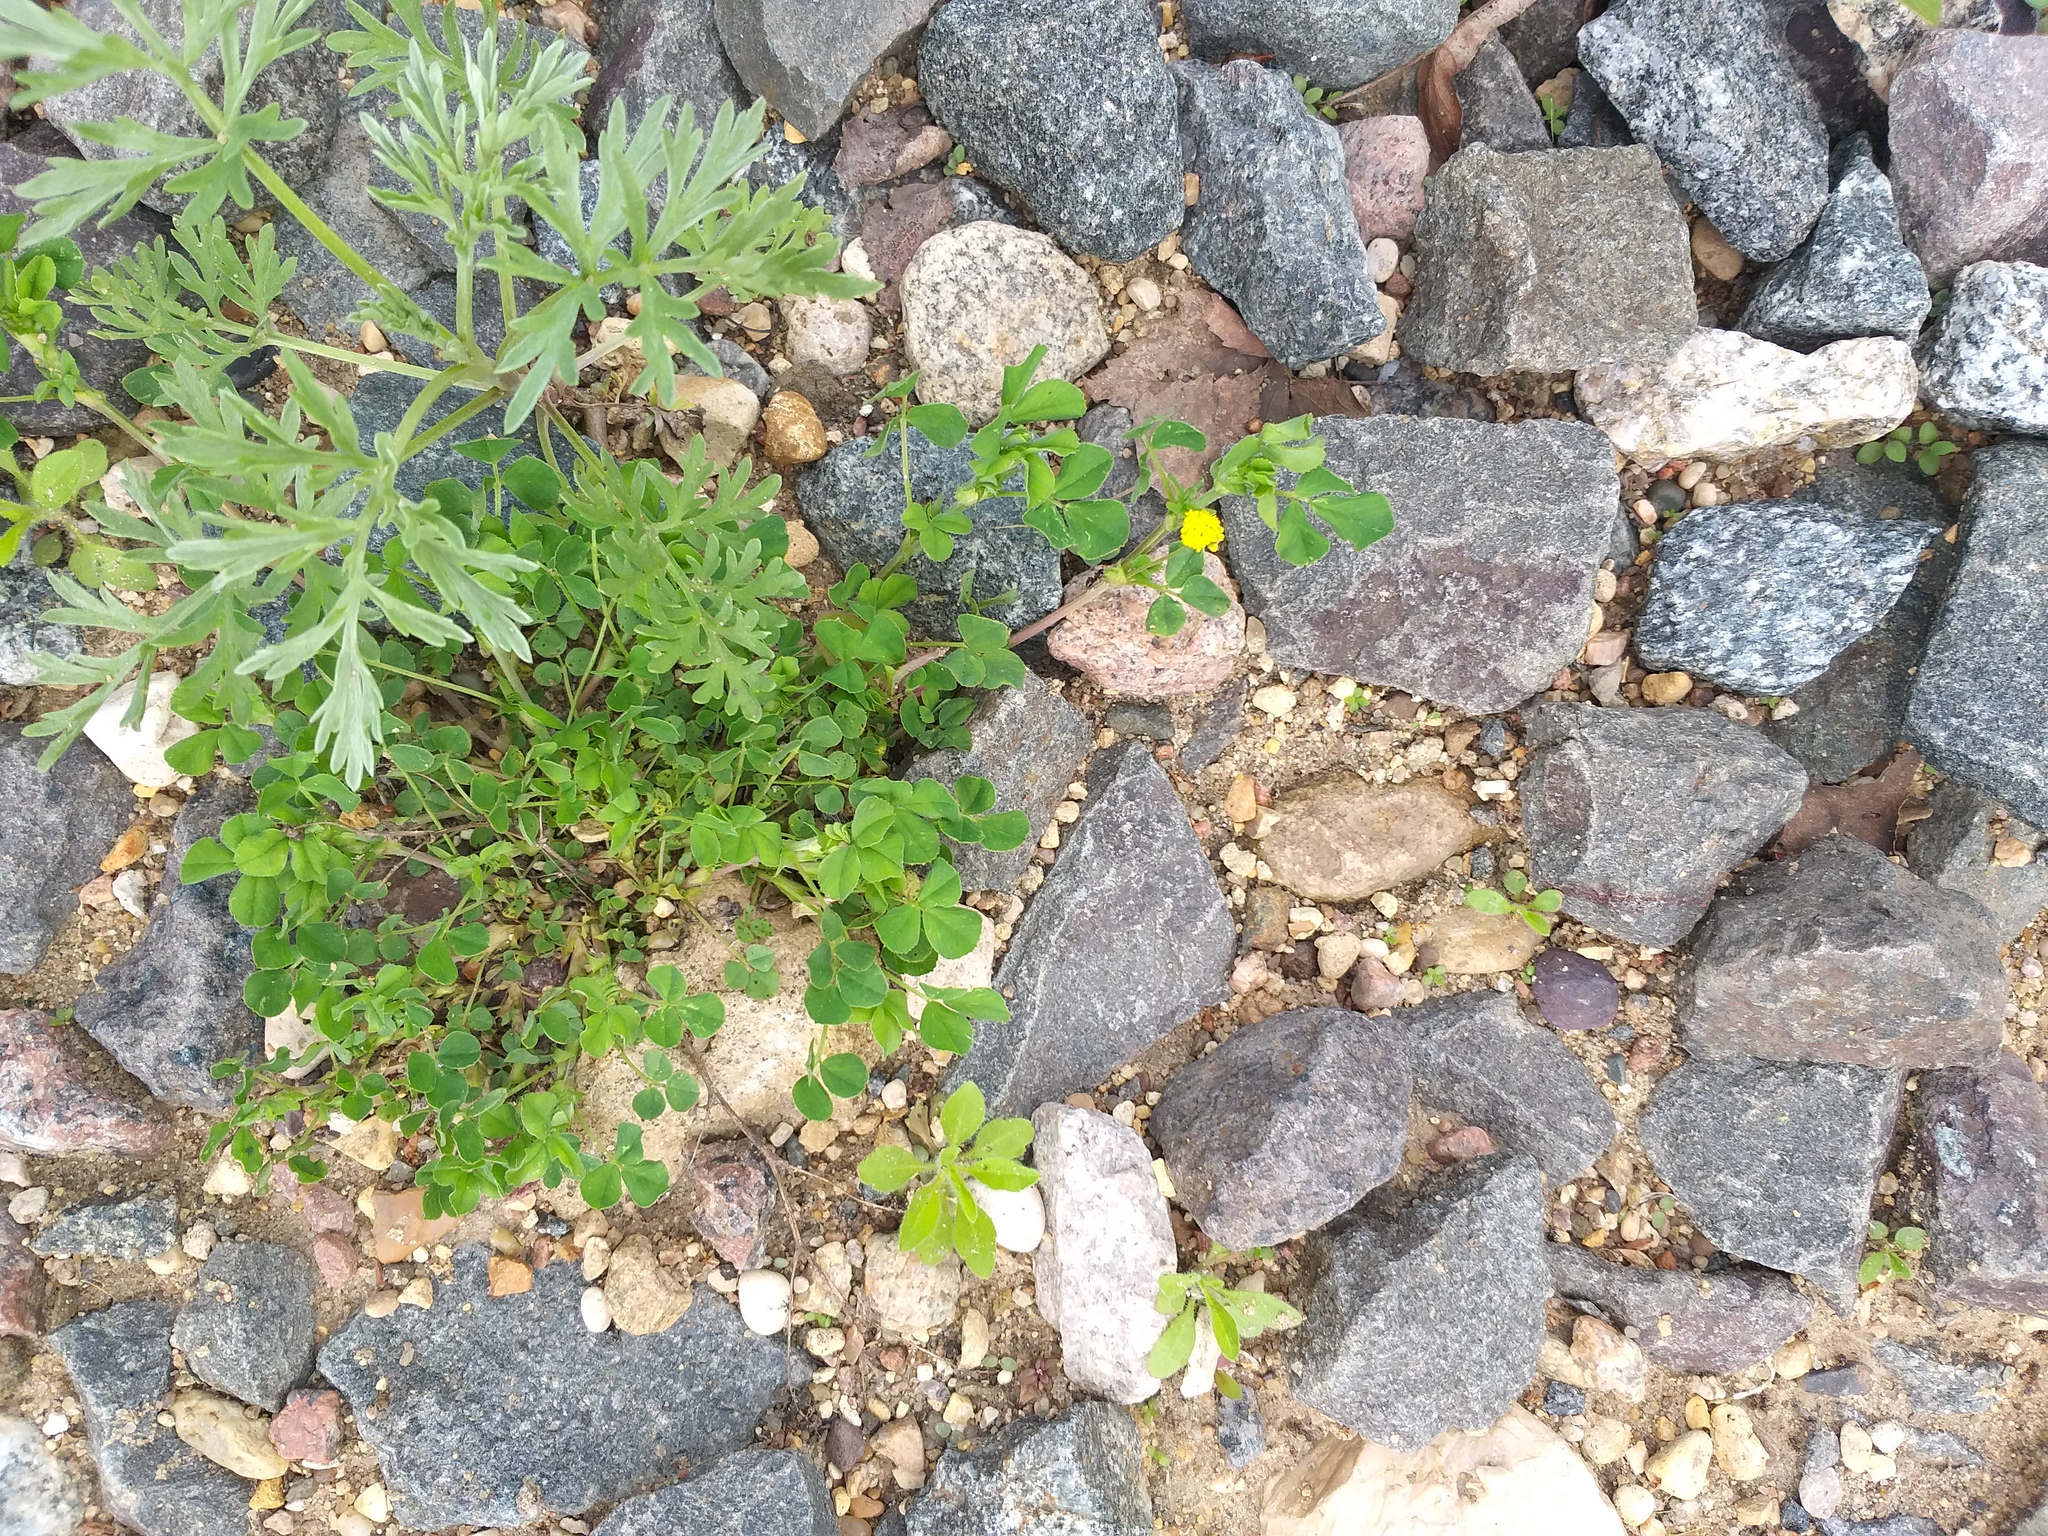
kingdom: Plantae
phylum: Tracheophyta
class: Magnoliopsida
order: Fabales
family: Fabaceae
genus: Medicago
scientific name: Medicago lupulina
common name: Black medick
